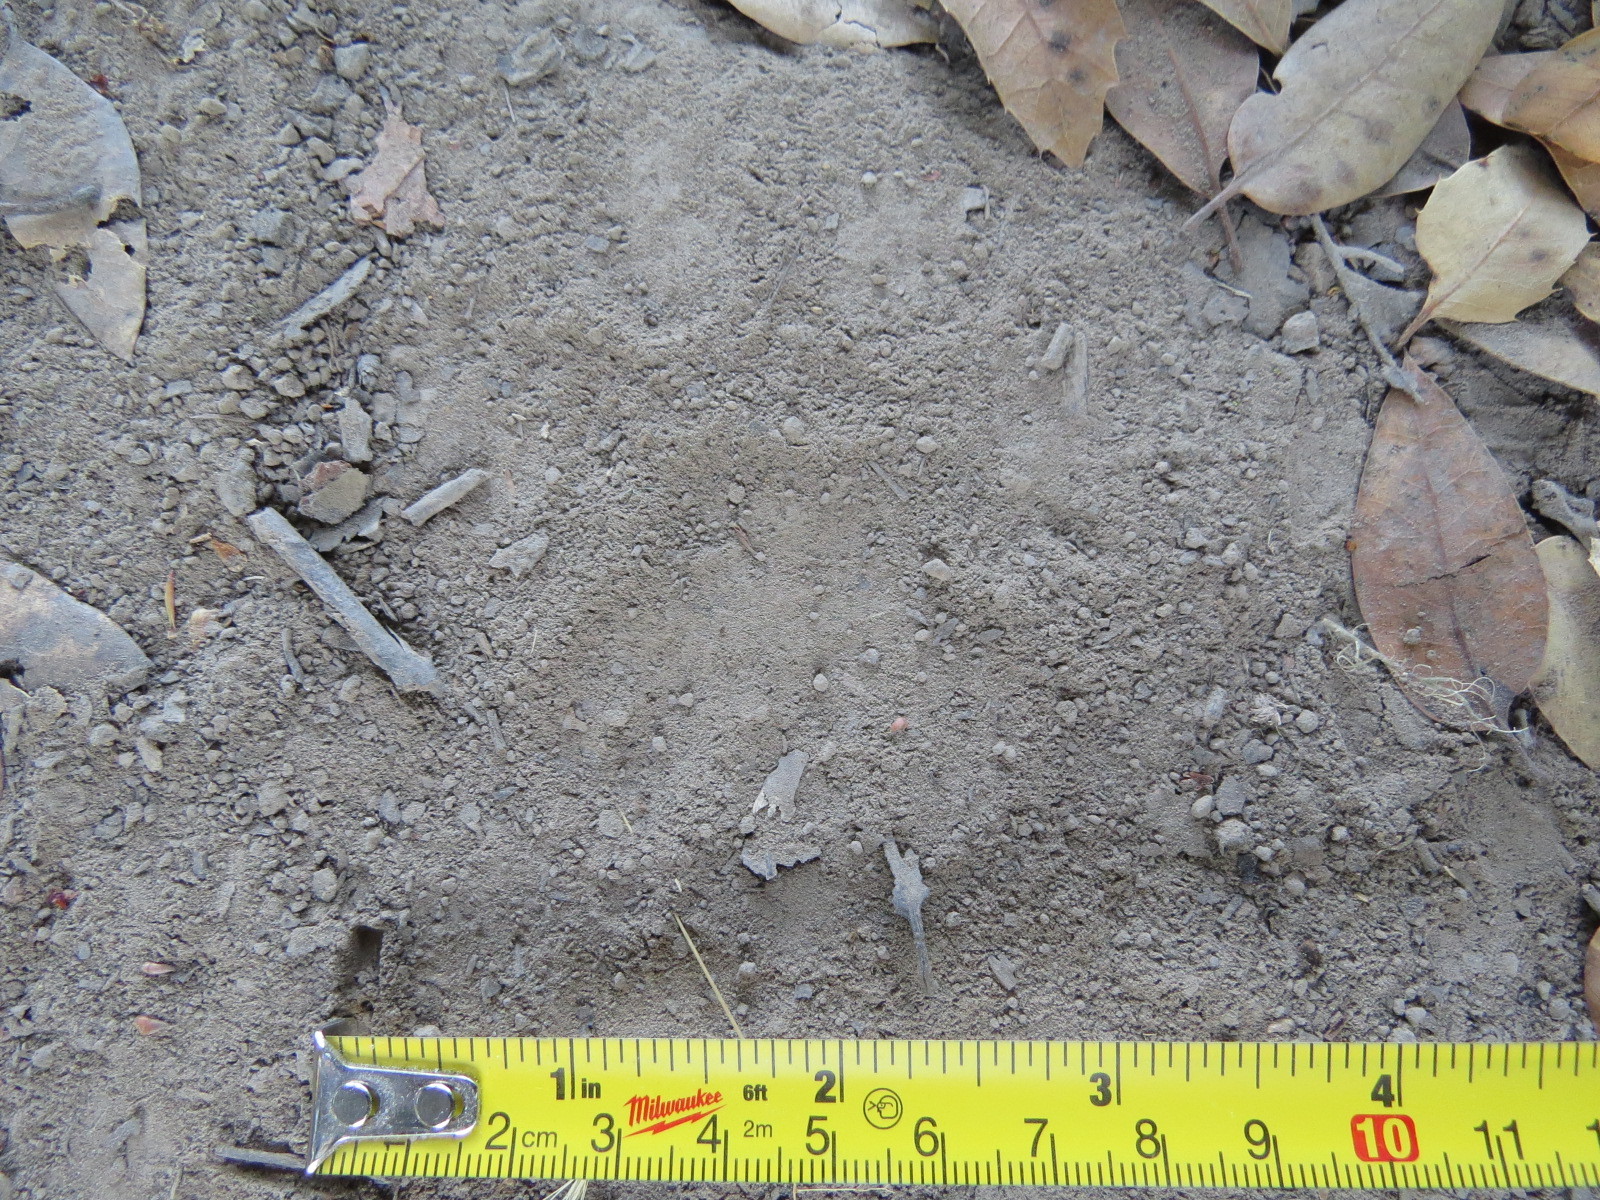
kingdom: Animalia
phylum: Chordata
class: Mammalia
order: Carnivora
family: Felidae
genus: Puma
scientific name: Puma concolor
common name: Puma
